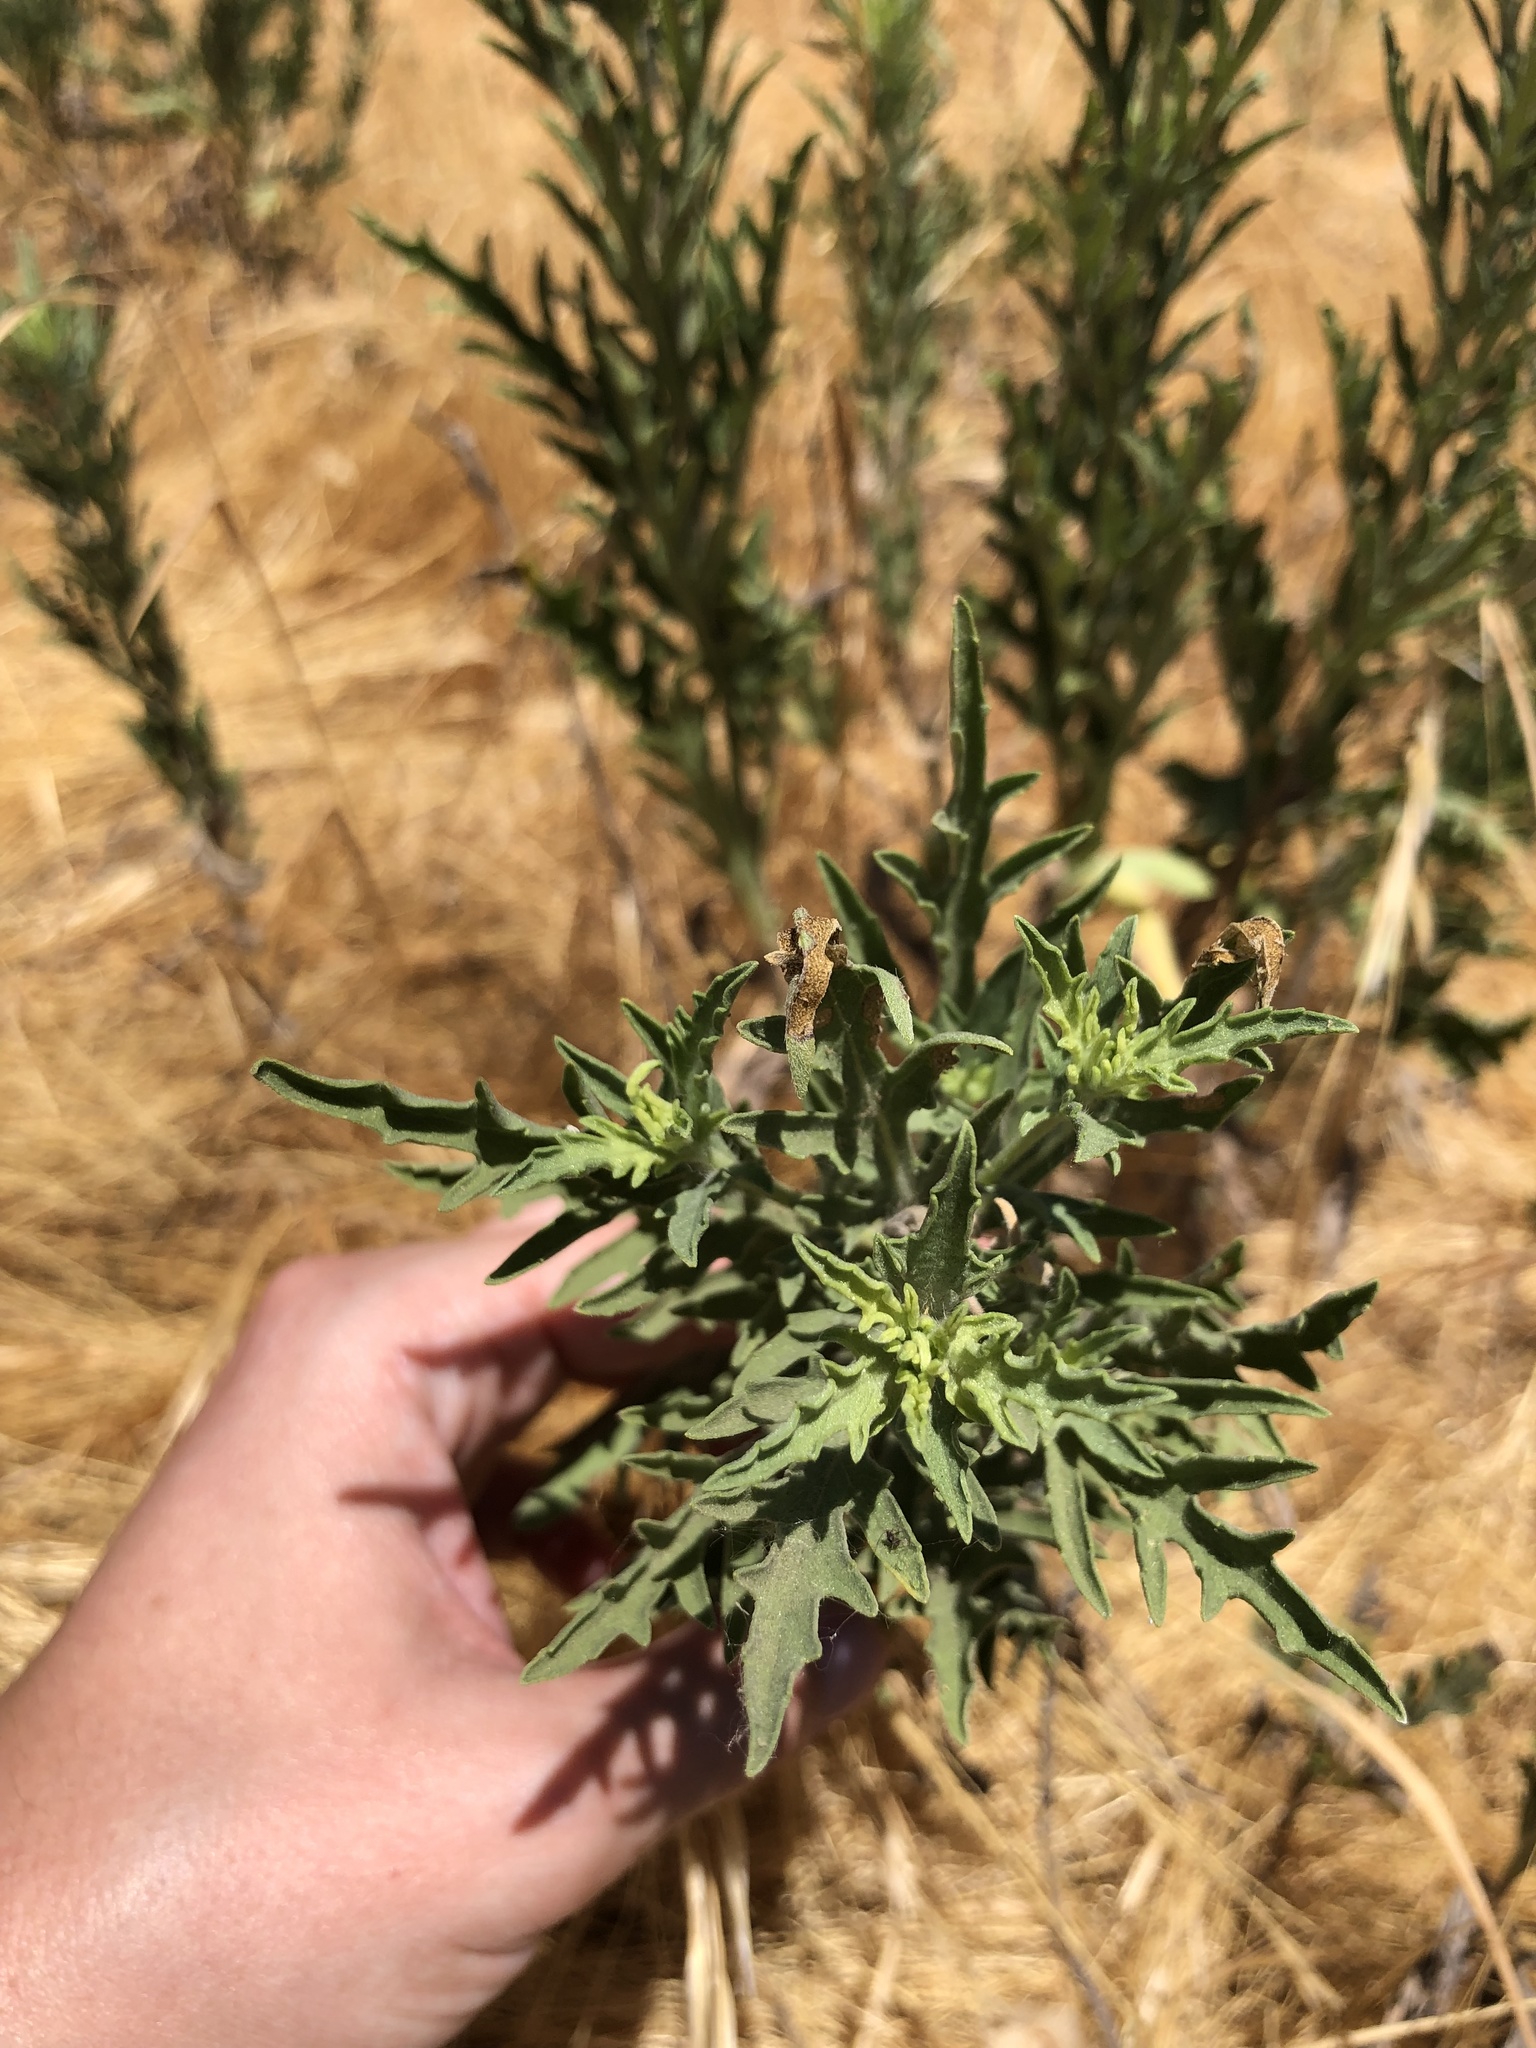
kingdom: Plantae
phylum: Tracheophyta
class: Magnoliopsida
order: Asterales
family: Asteraceae
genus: Ambrosia
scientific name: Ambrosia psilostachya
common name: Perennial ragweed
